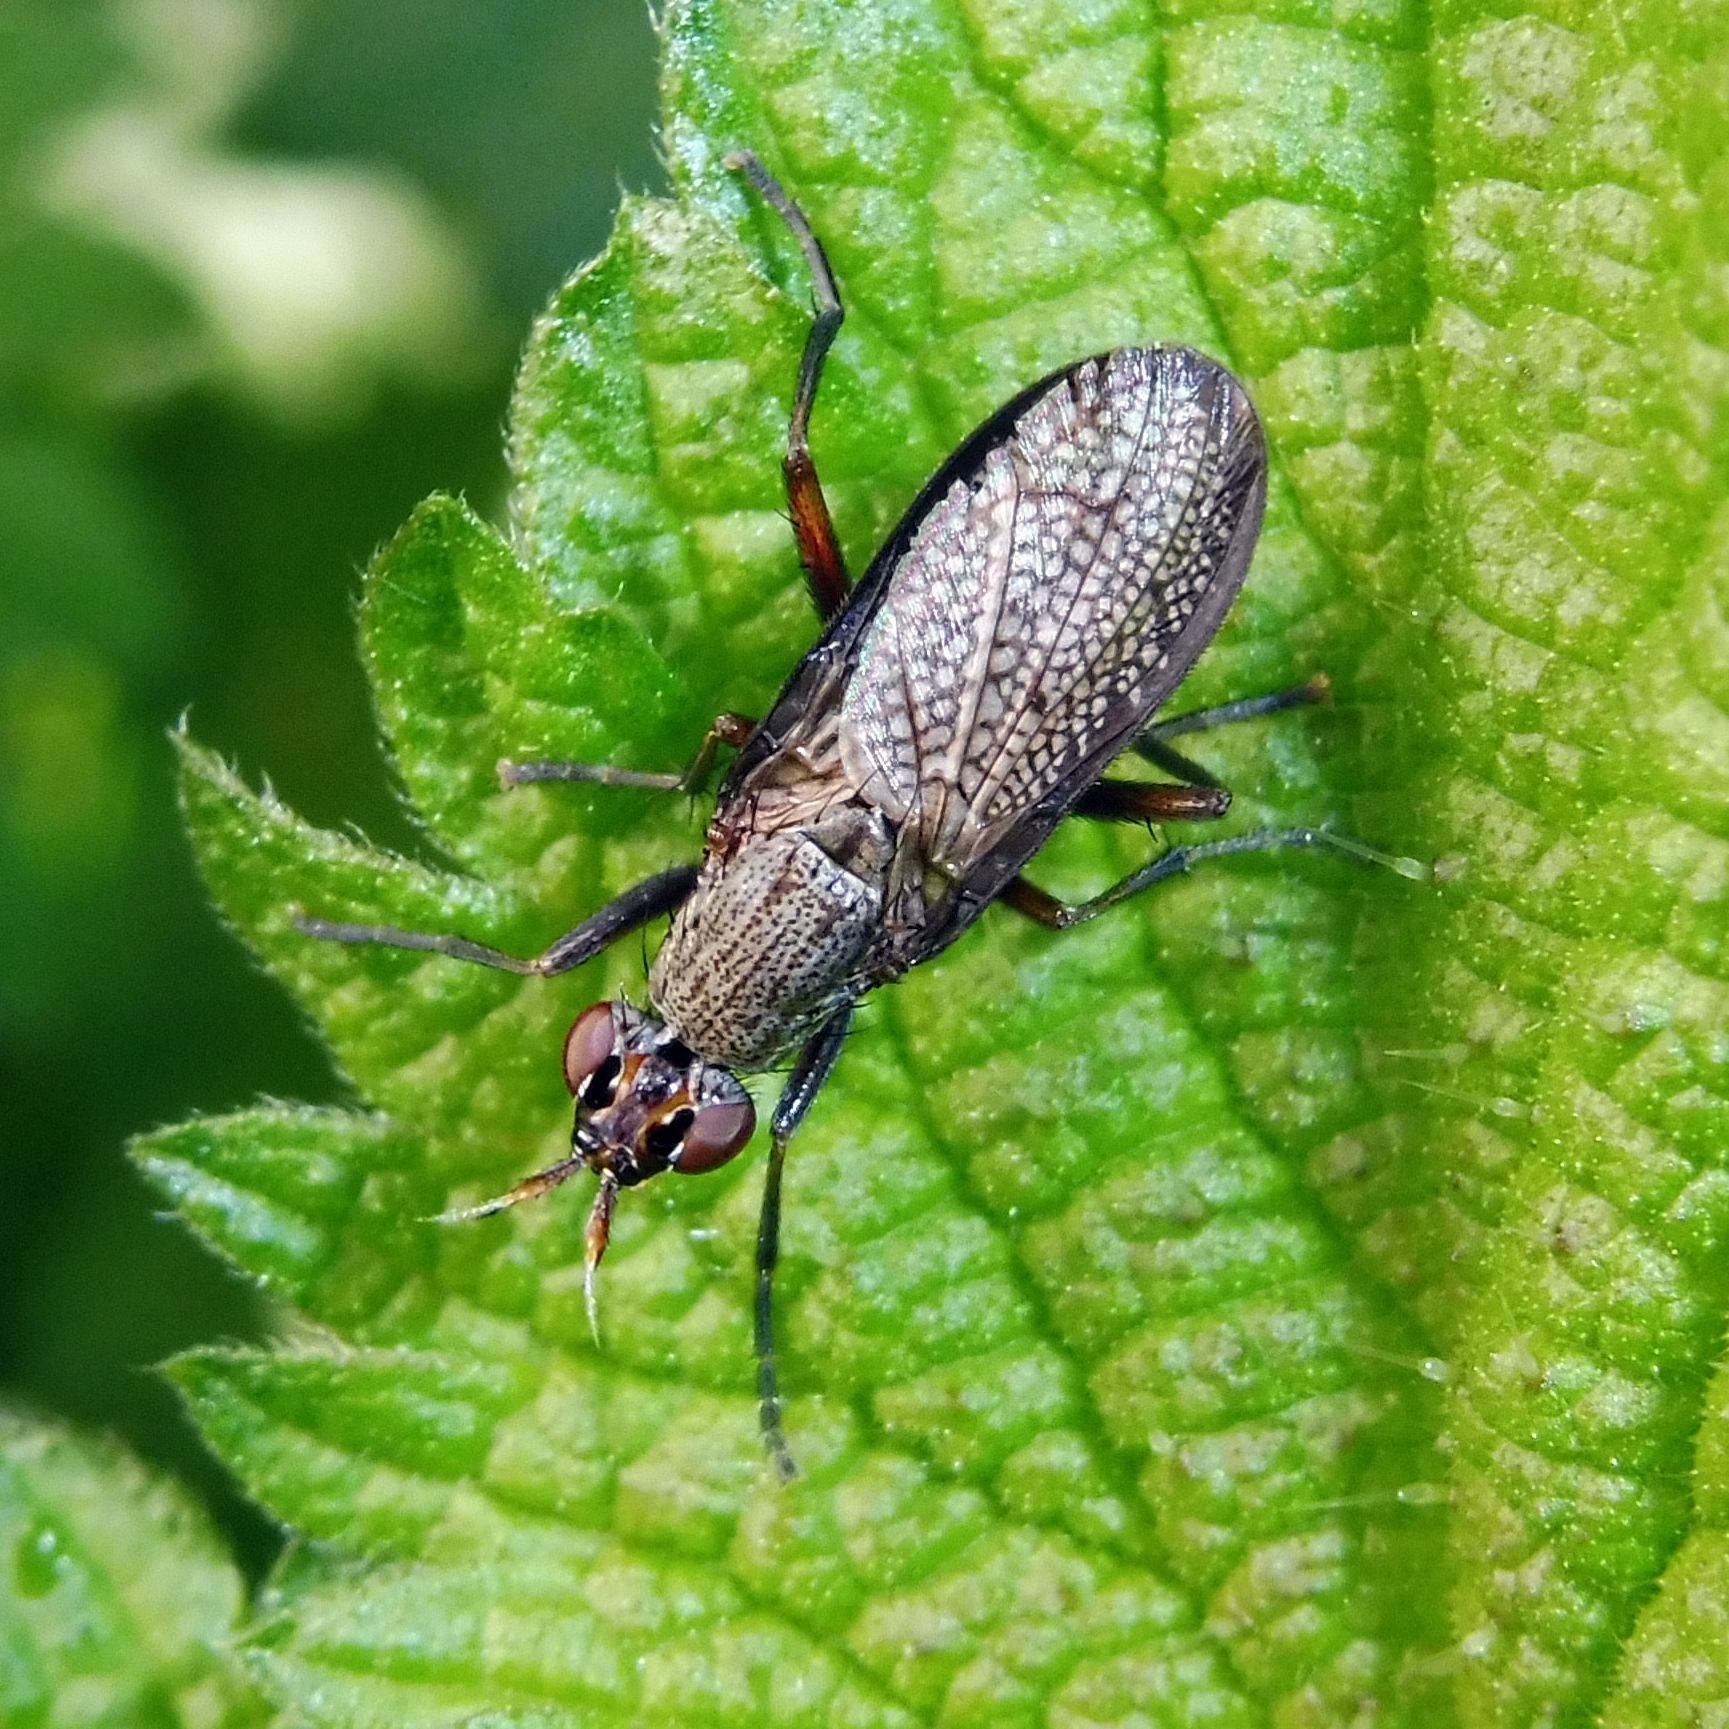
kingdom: Animalia
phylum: Arthropoda
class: Insecta
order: Diptera
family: Sciomyzidae
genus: Coremacera
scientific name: Coremacera marginata
